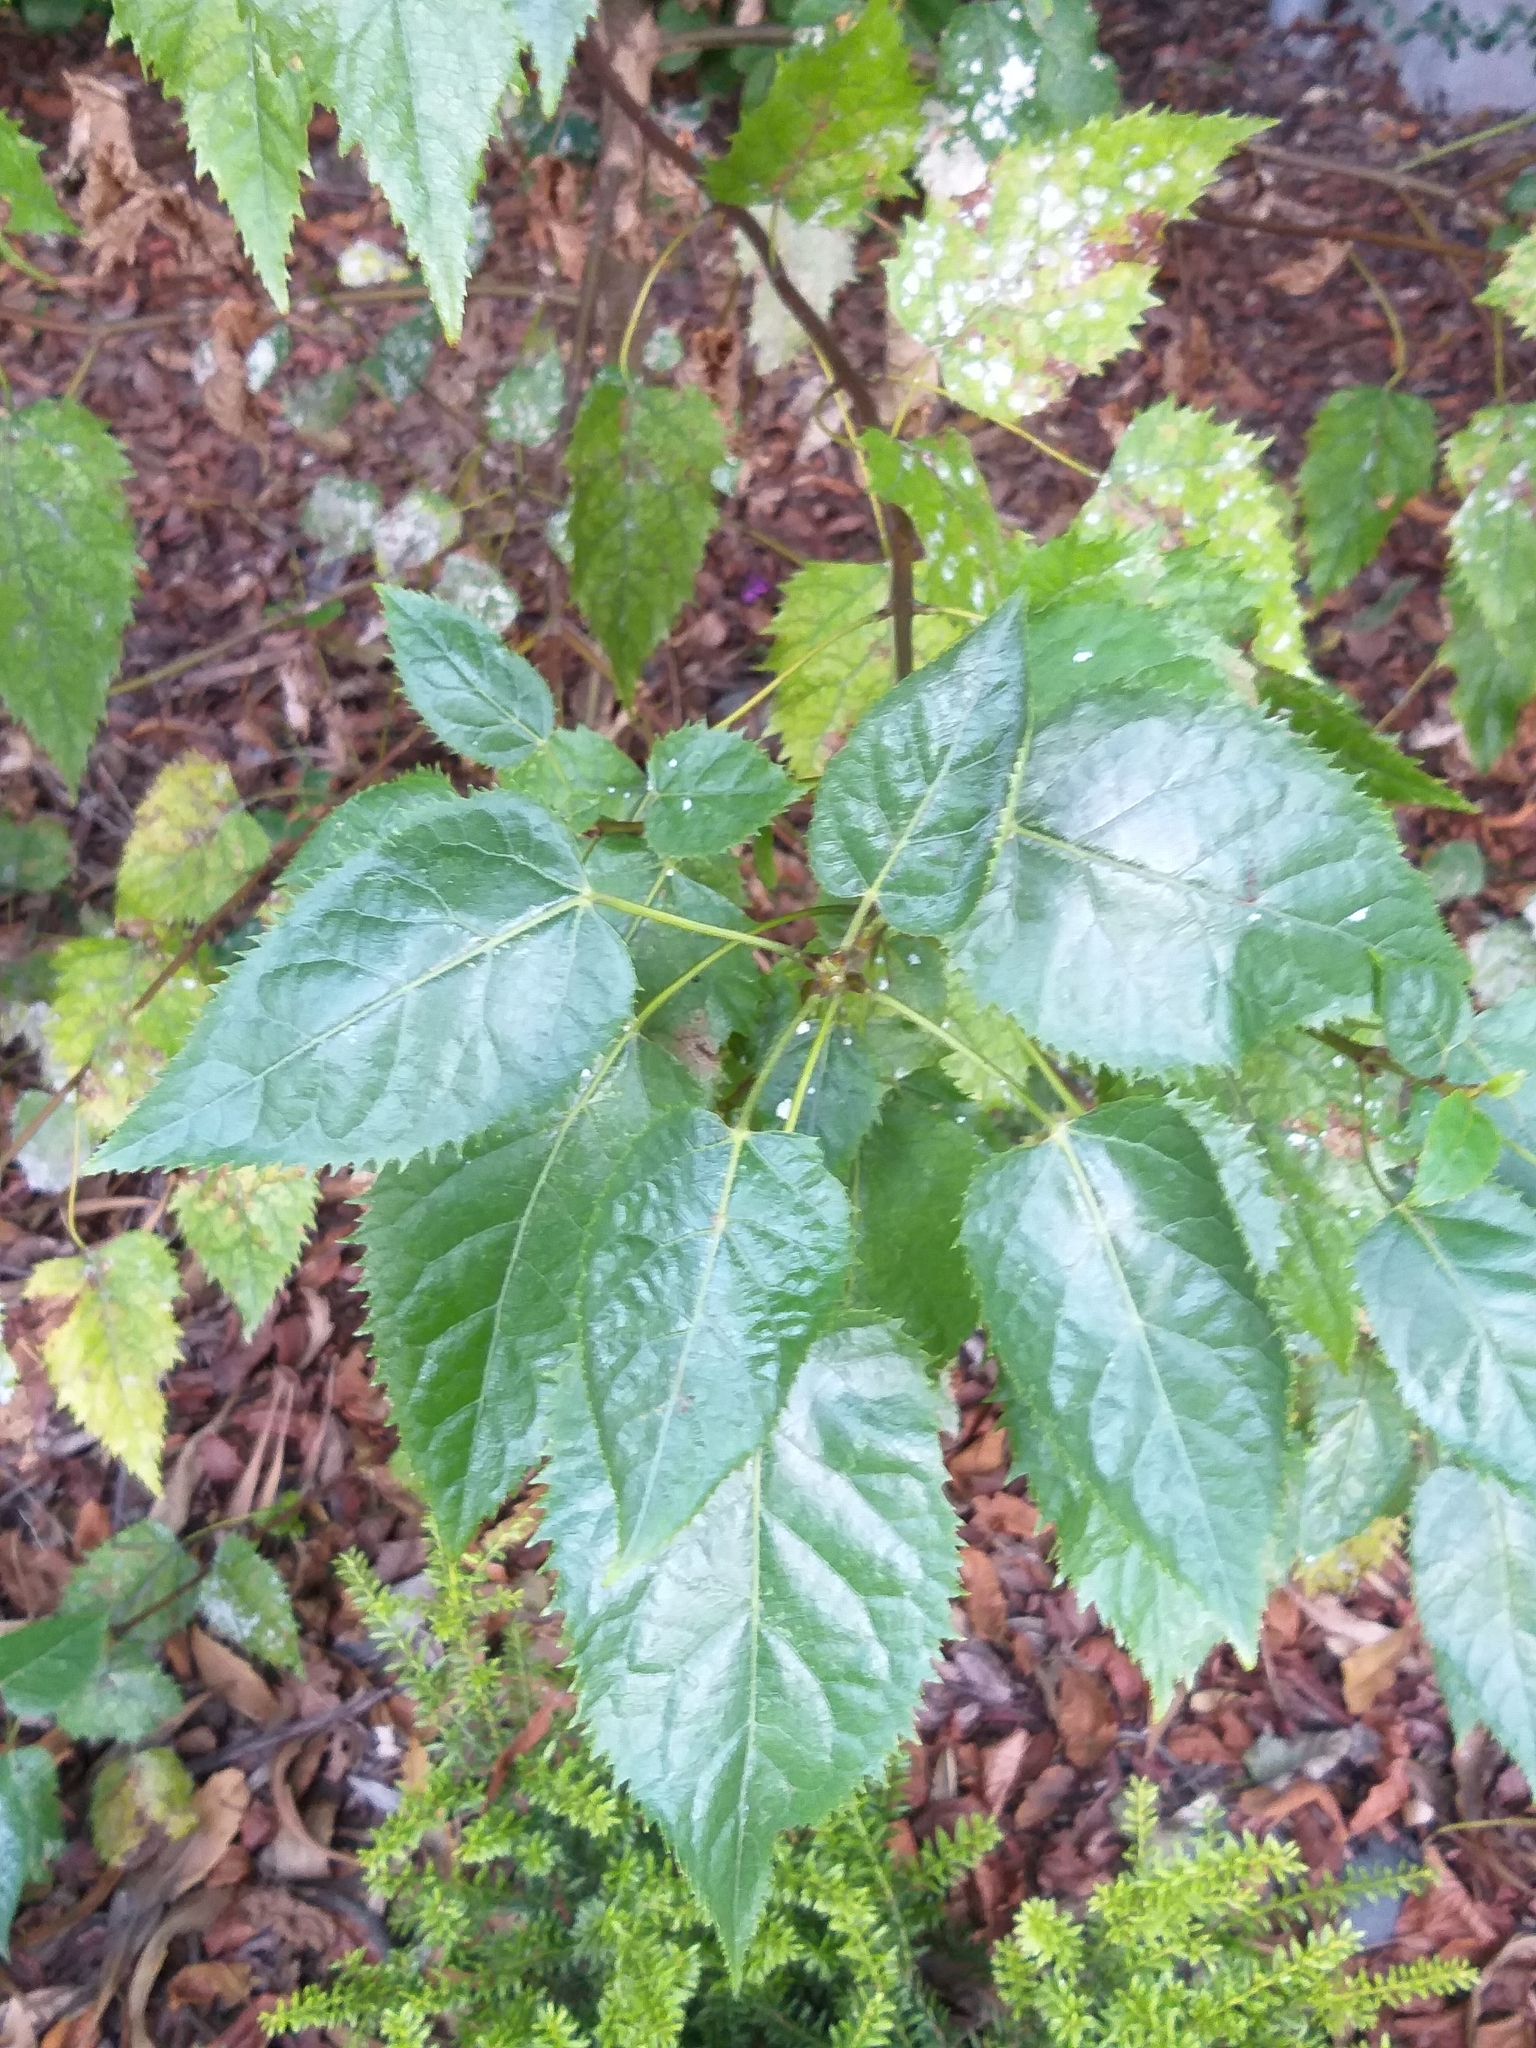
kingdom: Plantae
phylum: Tracheophyta
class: Magnoliopsida
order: Oxalidales
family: Elaeocarpaceae
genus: Aristotelia
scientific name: Aristotelia serrata
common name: New zealand wineberry
